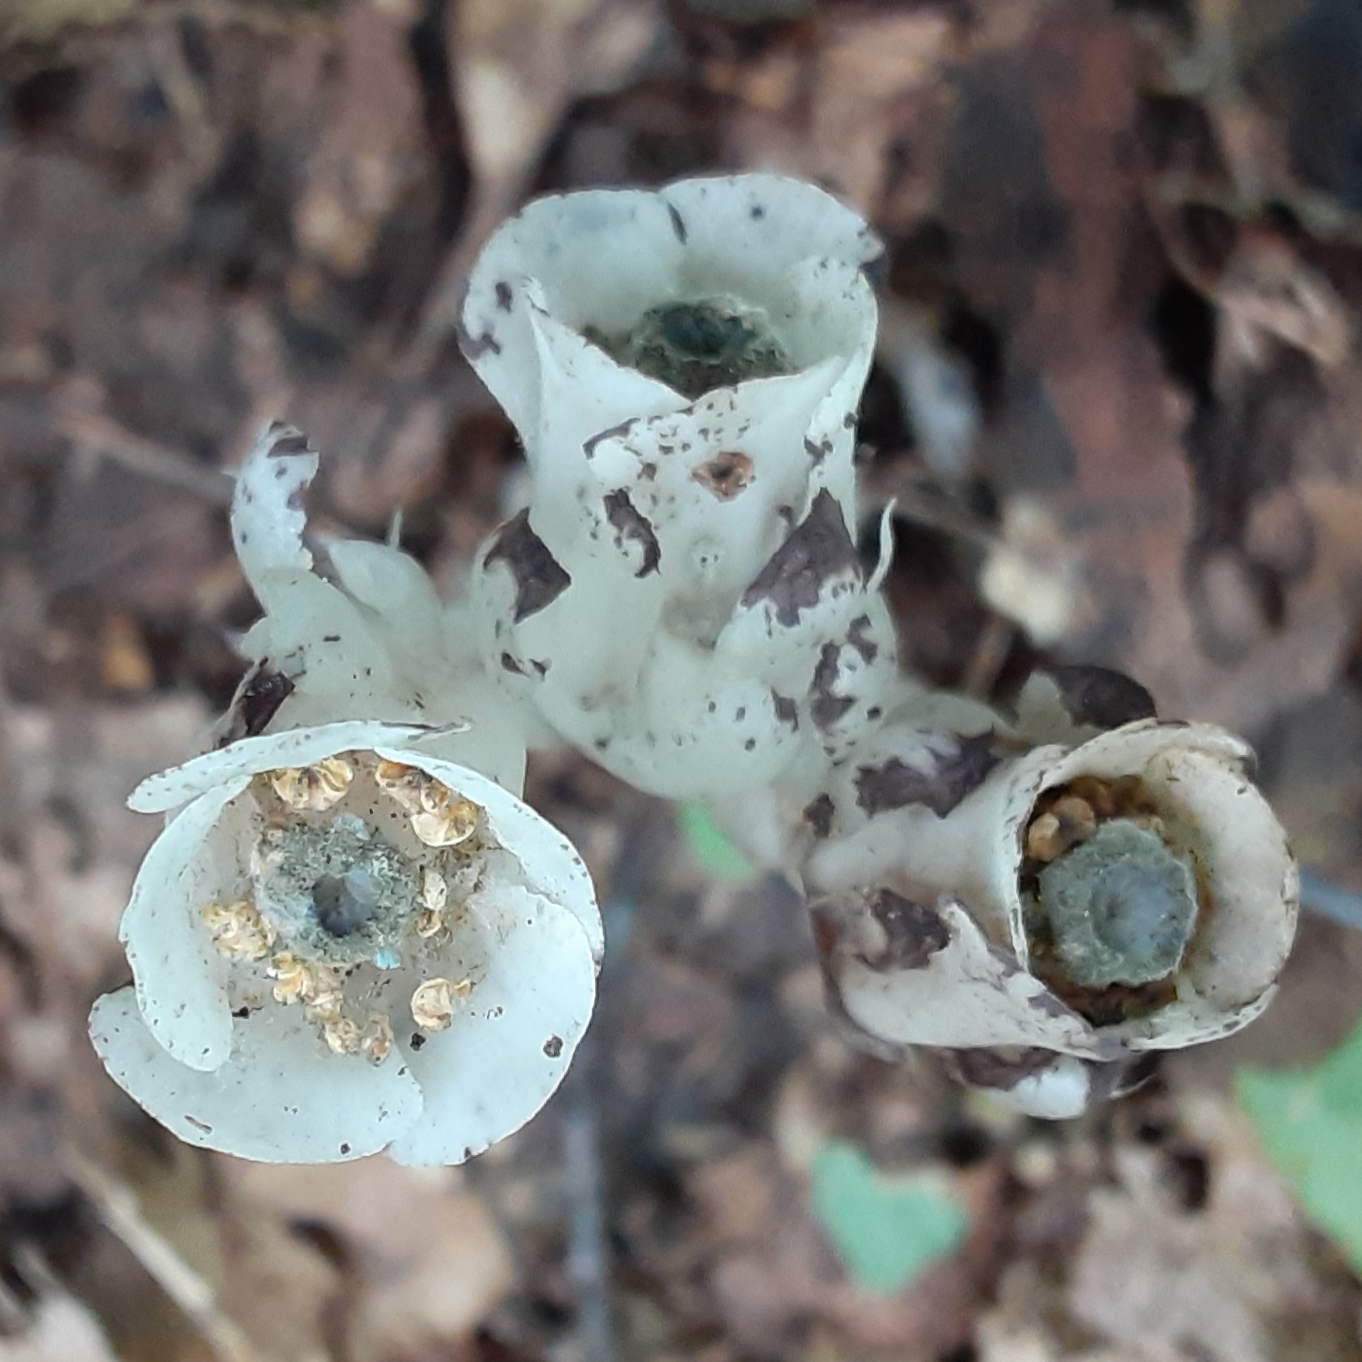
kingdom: Plantae
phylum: Tracheophyta
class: Magnoliopsida
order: Ericales
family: Ericaceae
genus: Monotropa
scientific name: Monotropa uniflora
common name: Convulsion root
